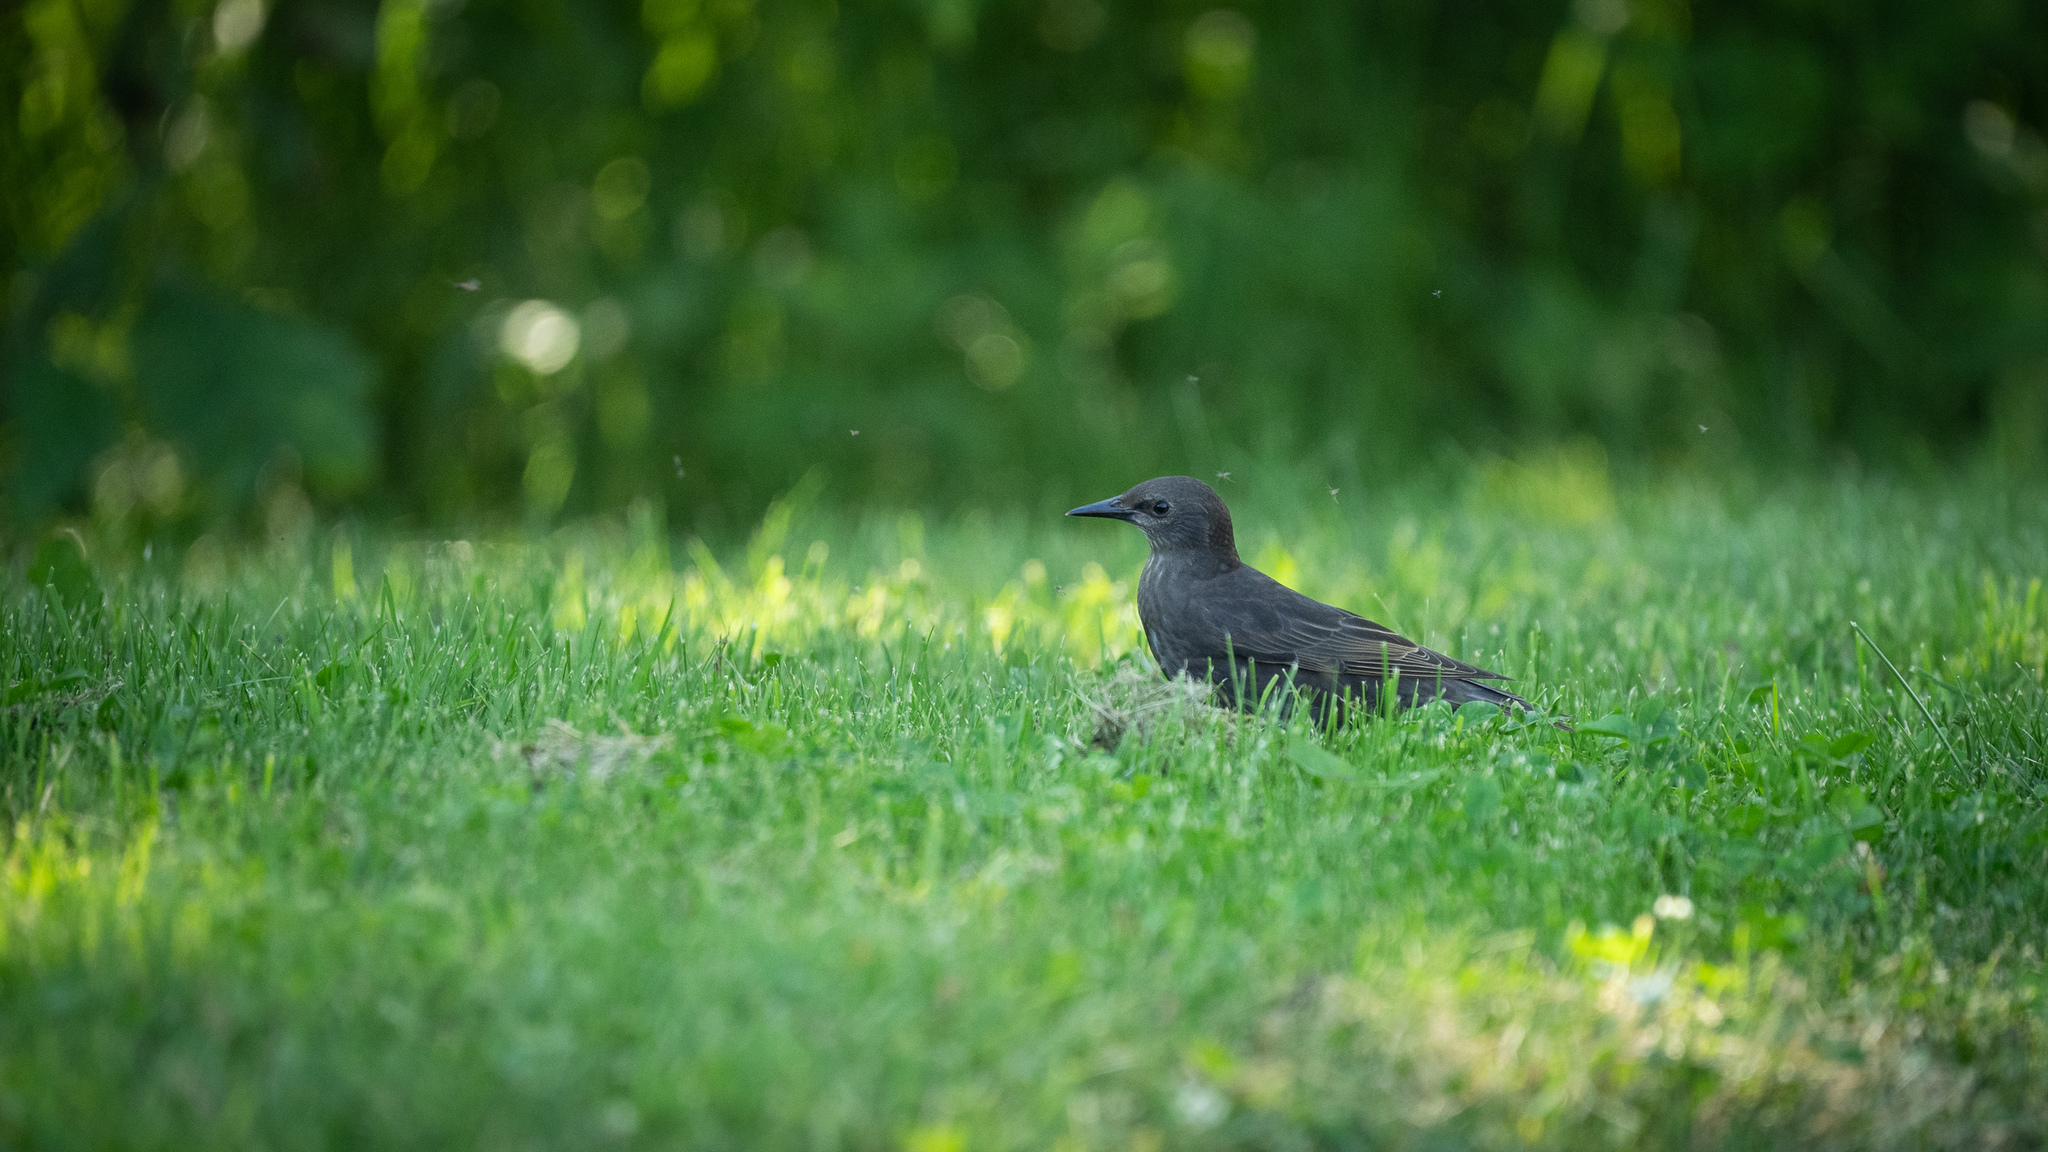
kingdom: Animalia
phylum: Chordata
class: Aves
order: Passeriformes
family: Sturnidae
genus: Sturnus
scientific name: Sturnus vulgaris
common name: Common starling
